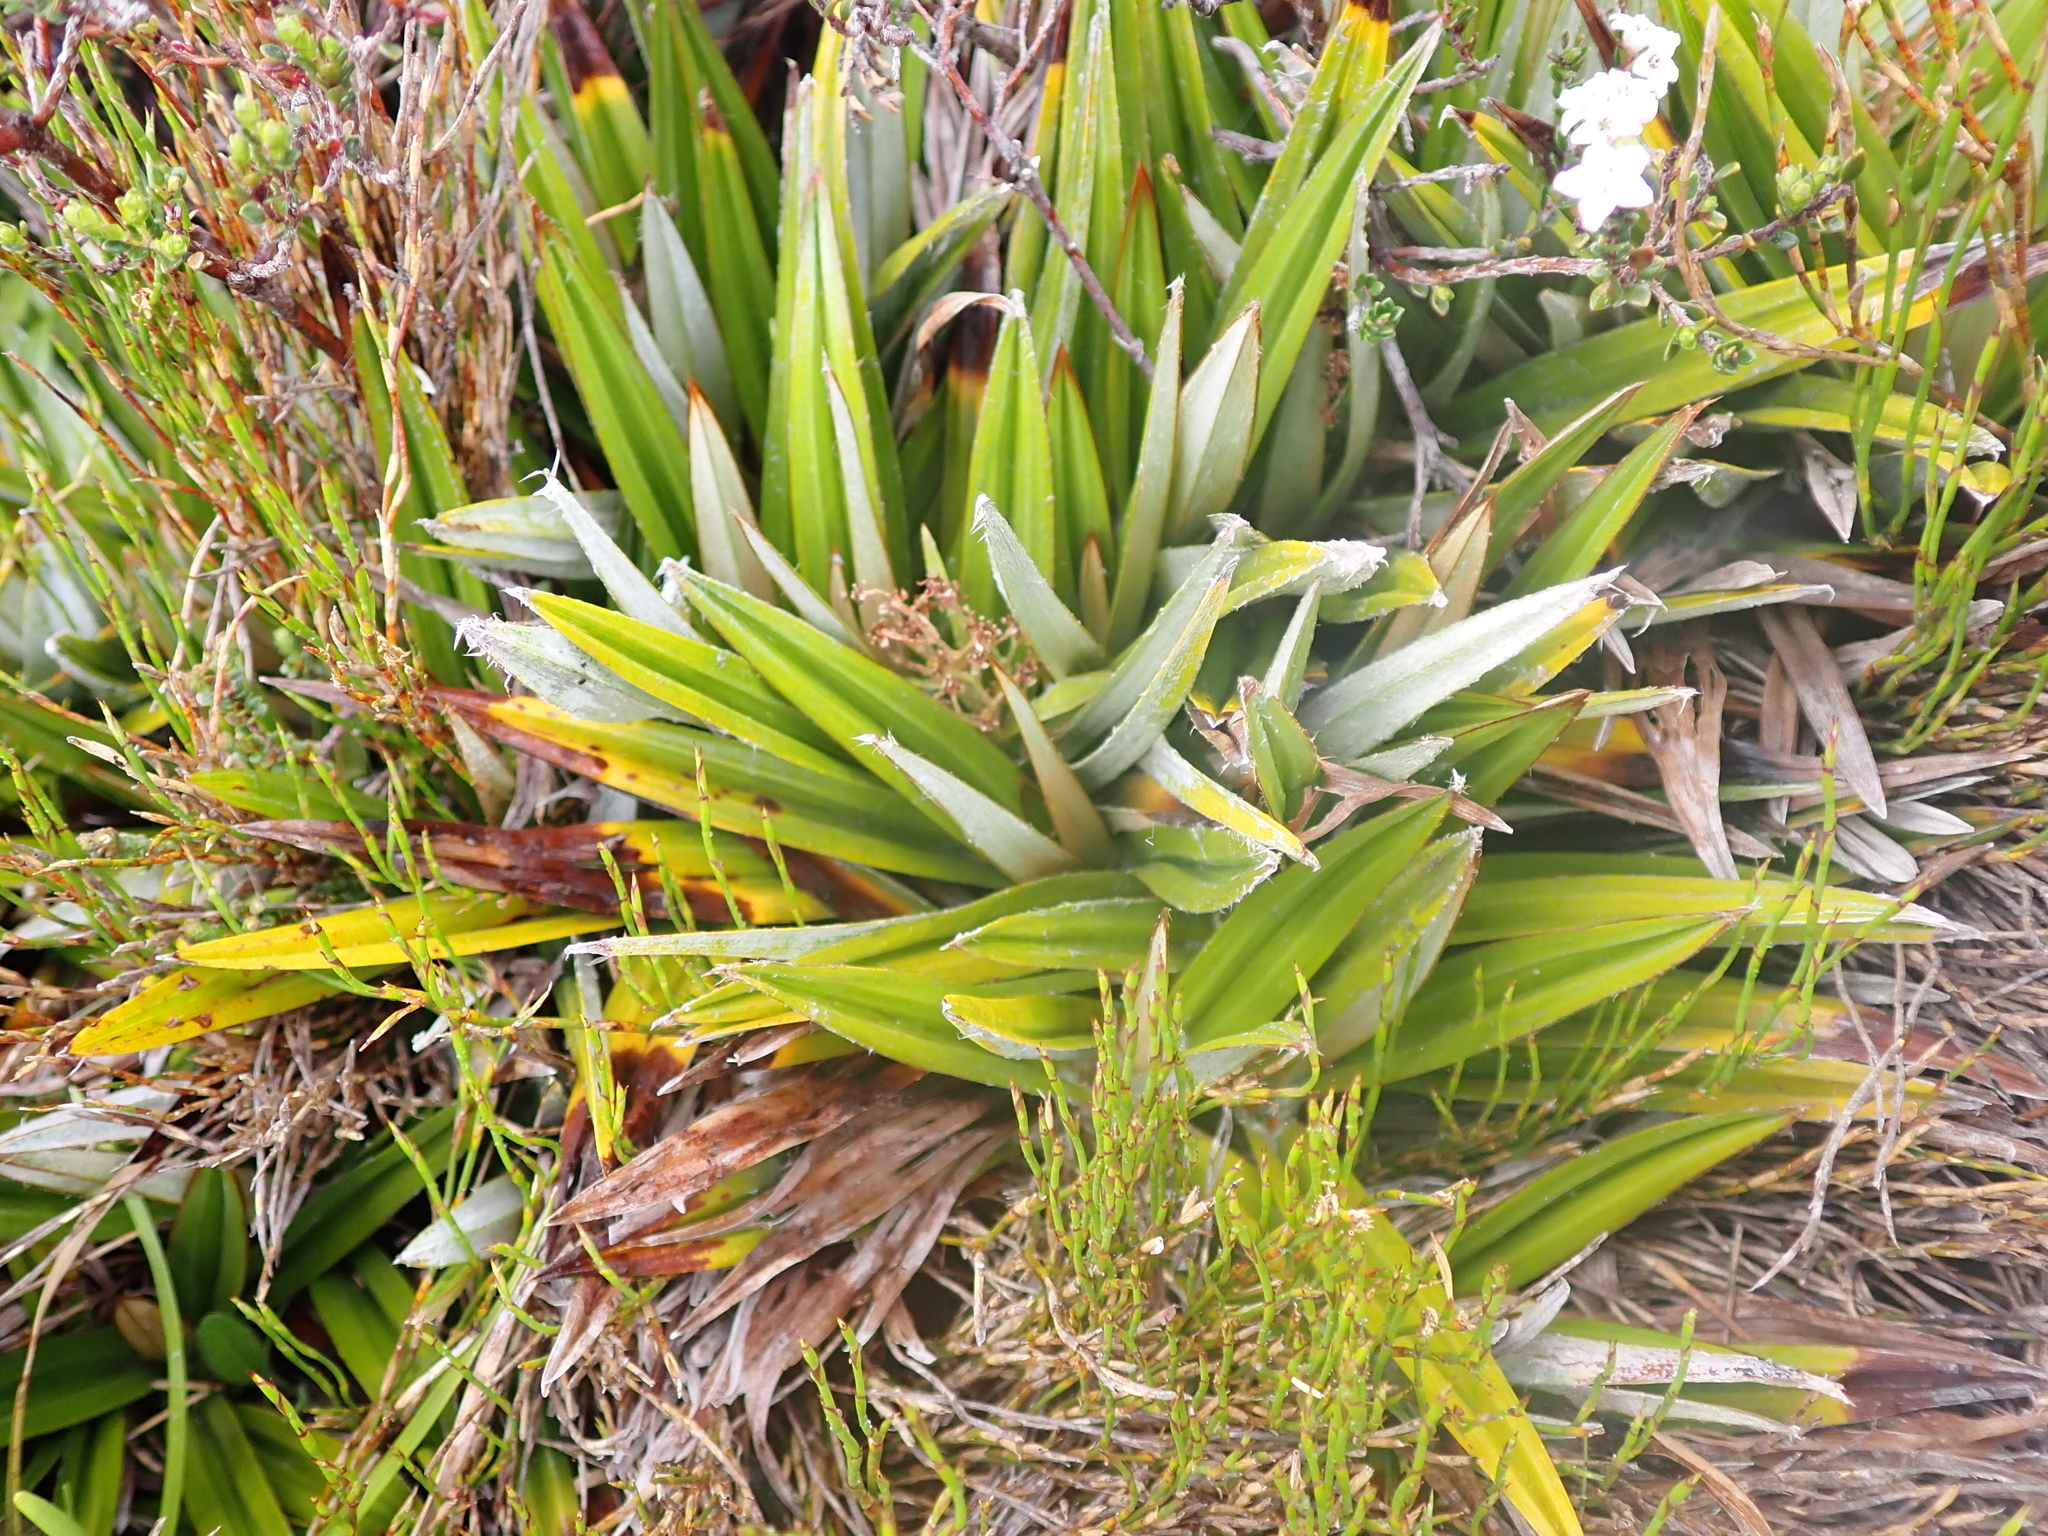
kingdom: Plantae
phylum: Tracheophyta
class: Liliopsida
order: Asparagales
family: Asteliaceae
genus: Astelia
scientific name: Astelia alpina
